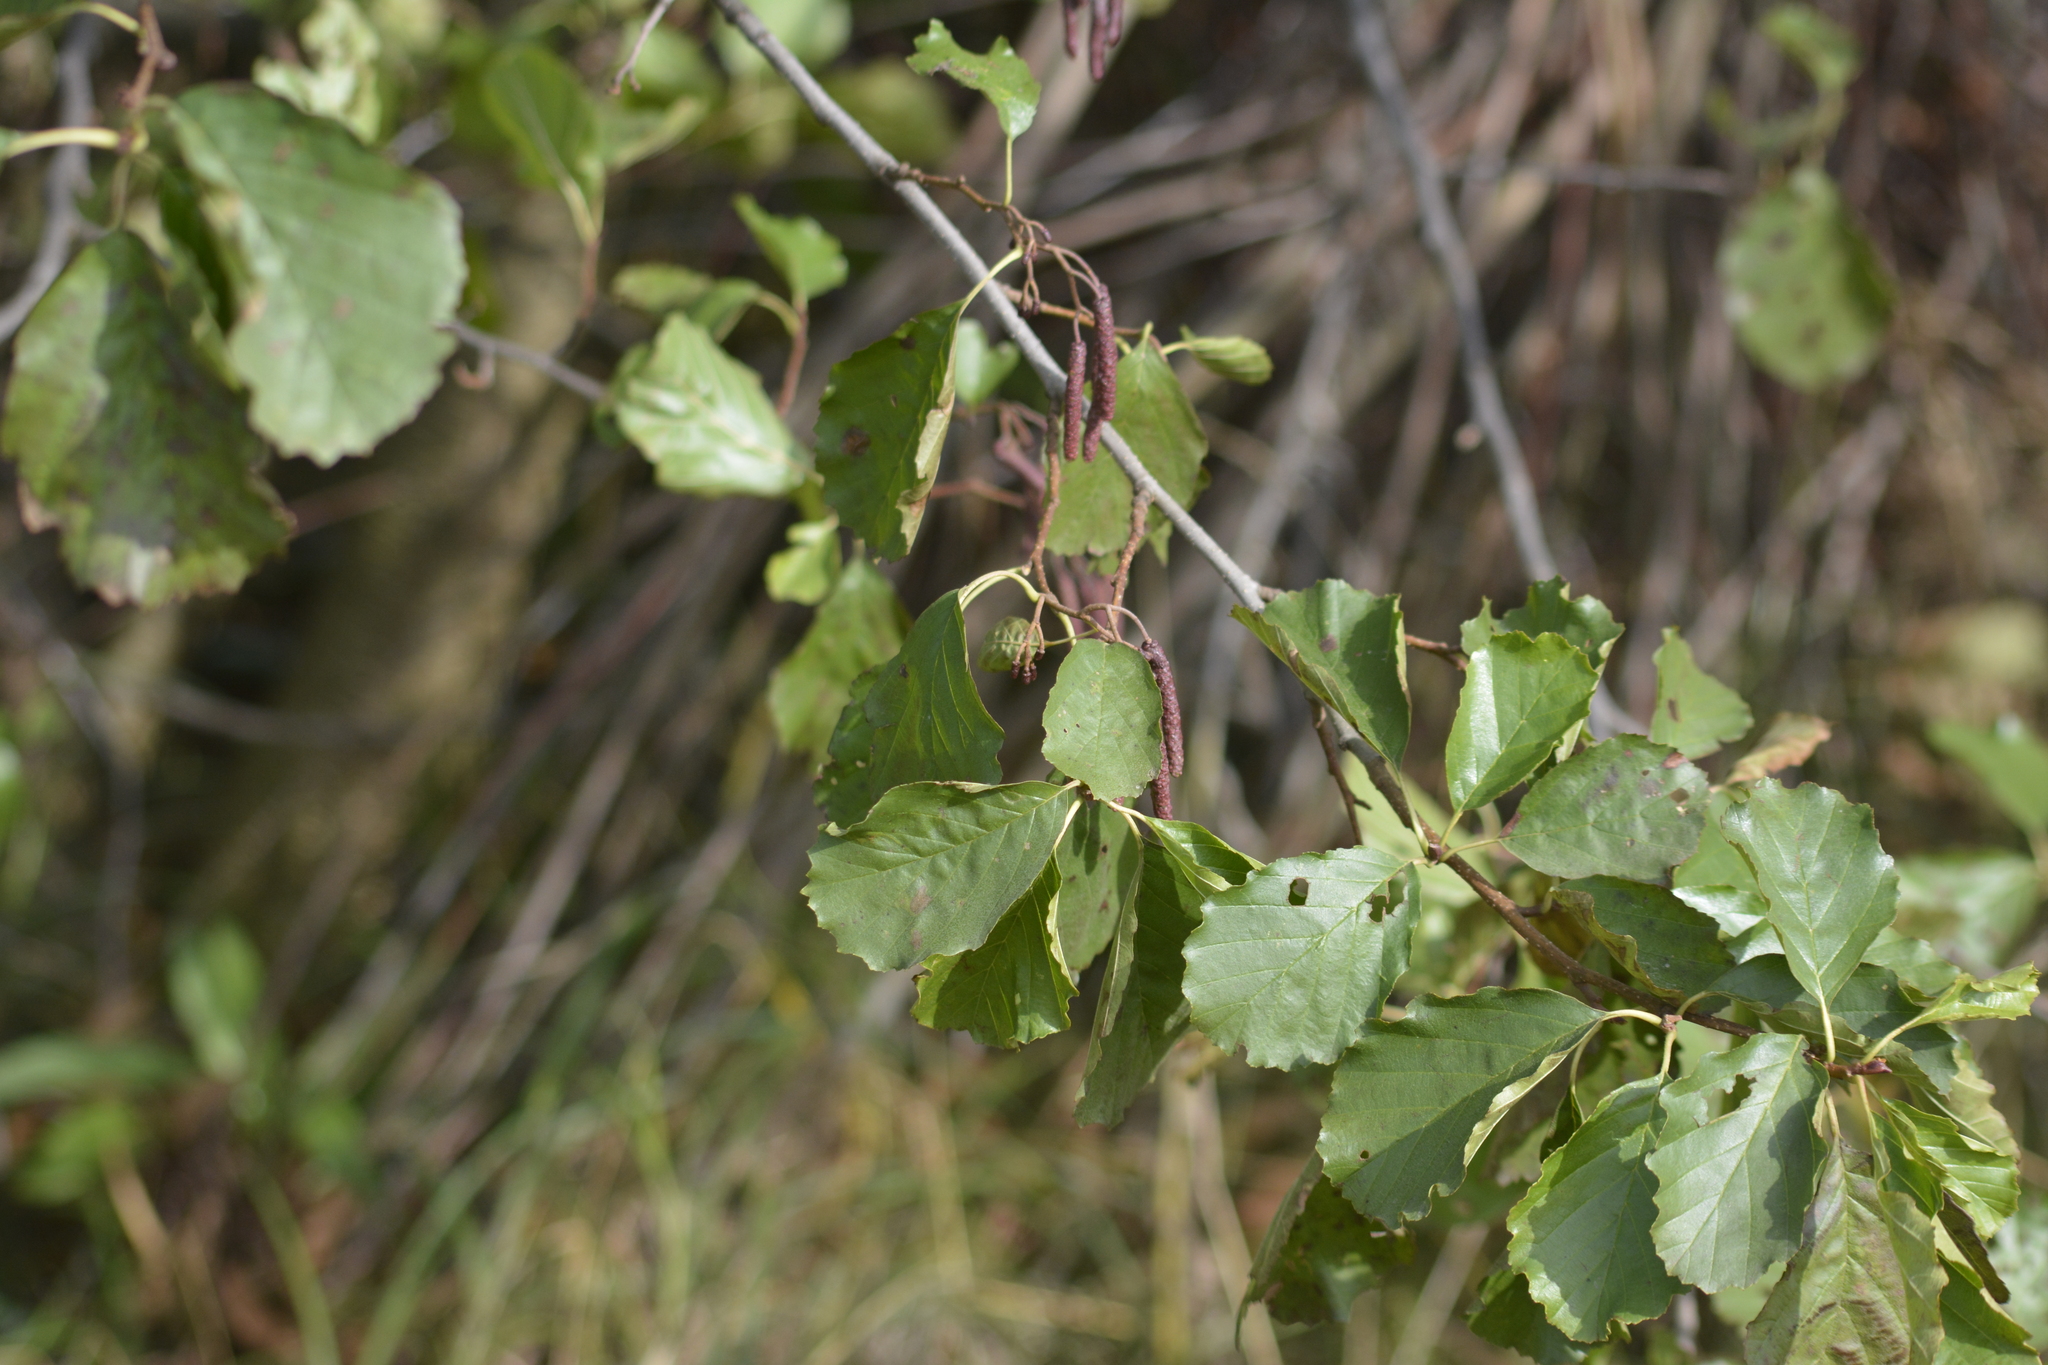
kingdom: Plantae
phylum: Tracheophyta
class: Magnoliopsida
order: Fagales
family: Betulaceae
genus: Alnus
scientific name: Alnus glutinosa
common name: Black alder
